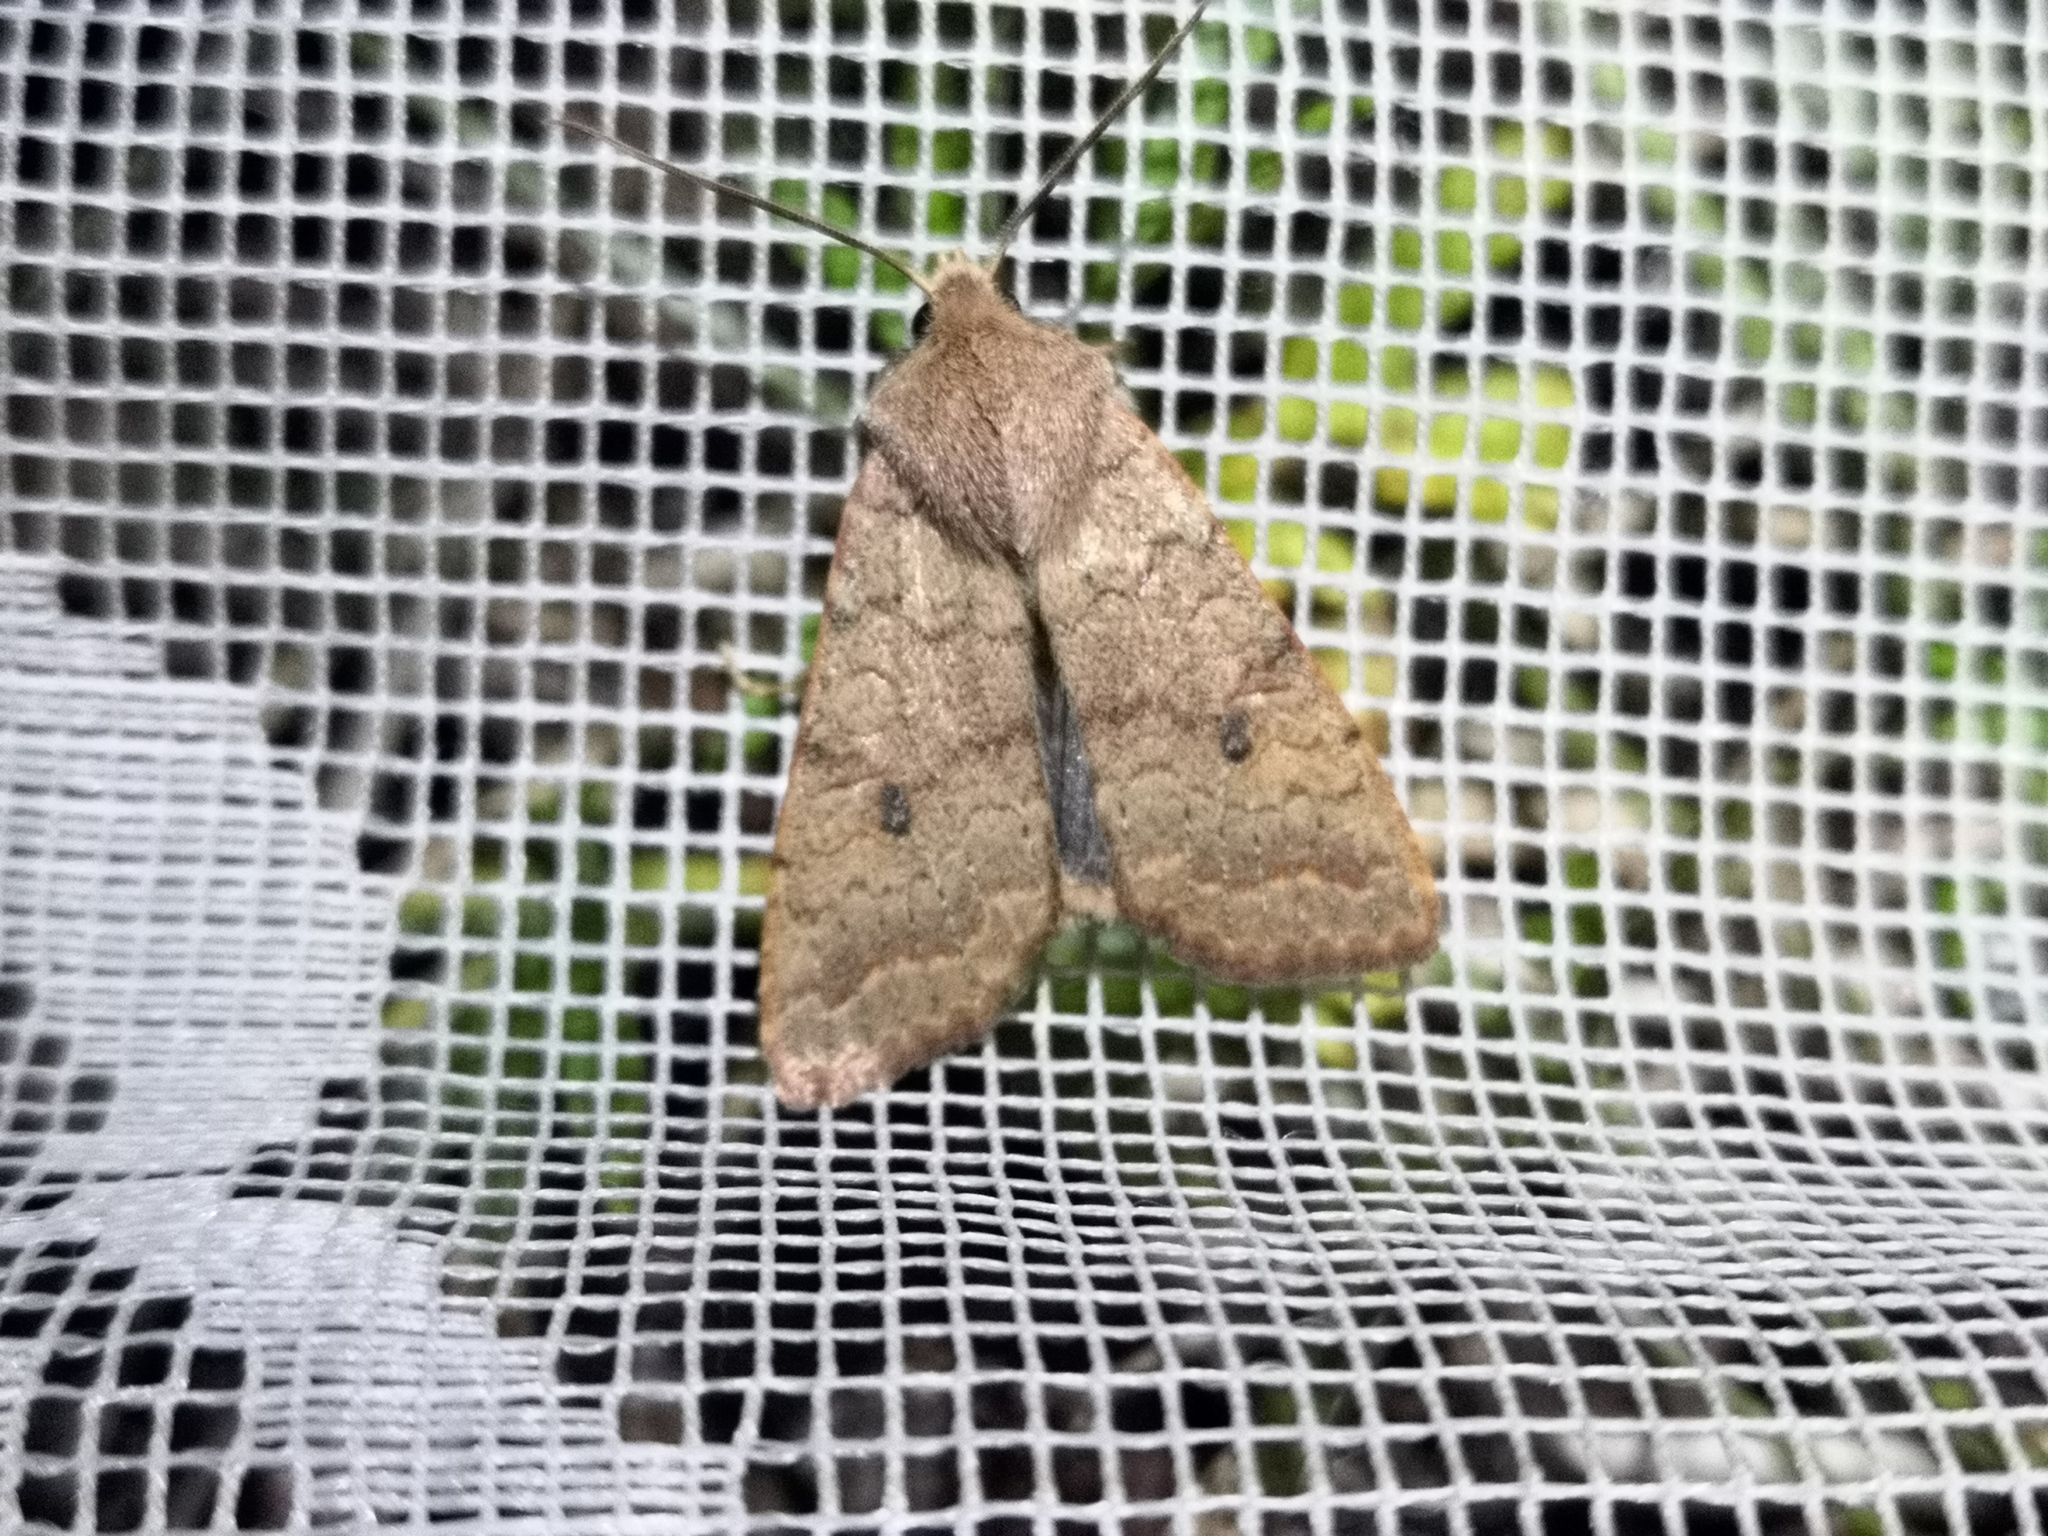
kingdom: Animalia
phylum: Arthropoda
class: Insecta
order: Lepidoptera
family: Noctuidae
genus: Sunira
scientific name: Sunira circellaris
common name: Brick
